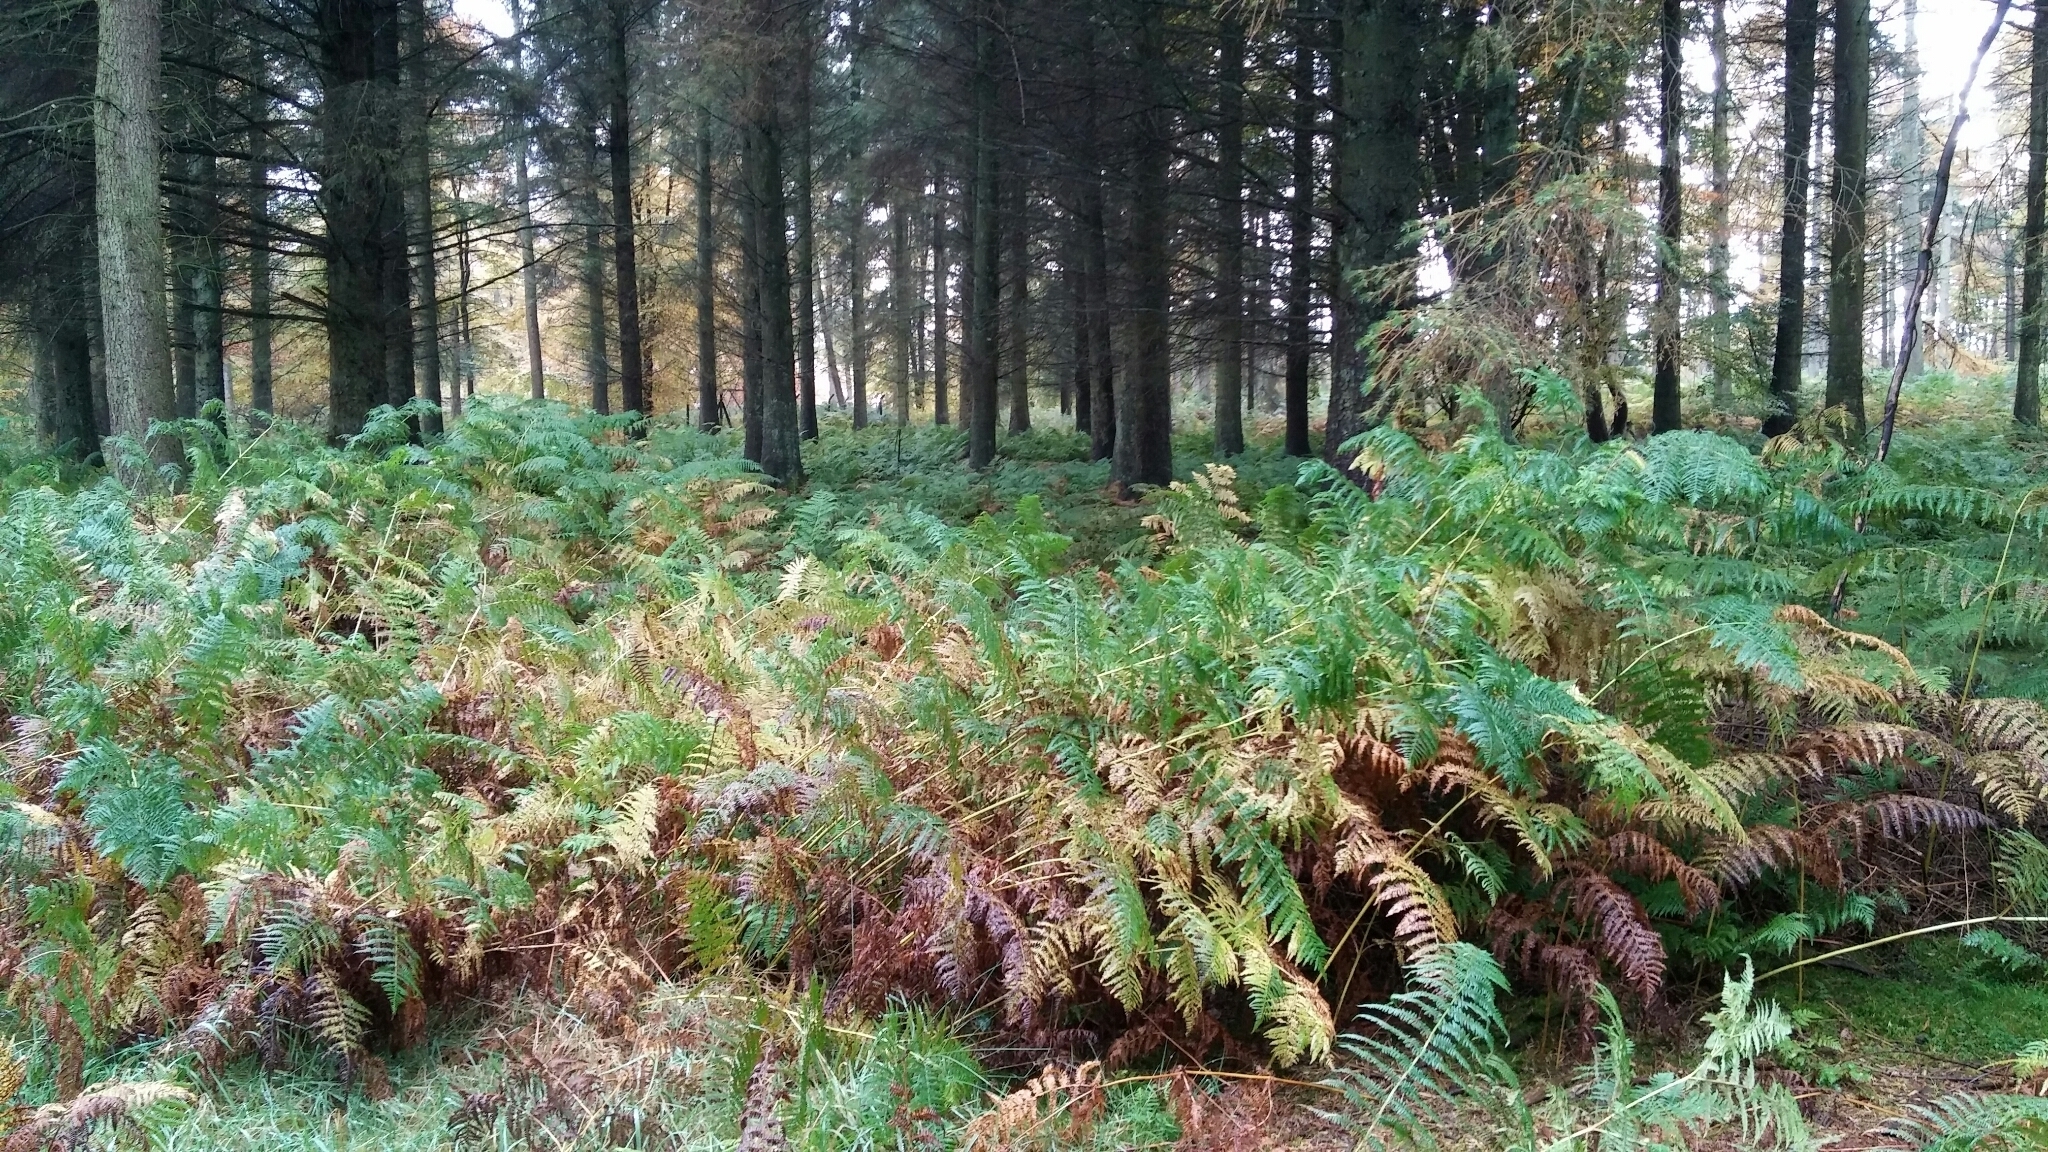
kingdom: Plantae
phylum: Tracheophyta
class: Polypodiopsida
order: Polypodiales
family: Dennstaedtiaceae
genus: Pteridium
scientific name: Pteridium aquilinum
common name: Bracken
